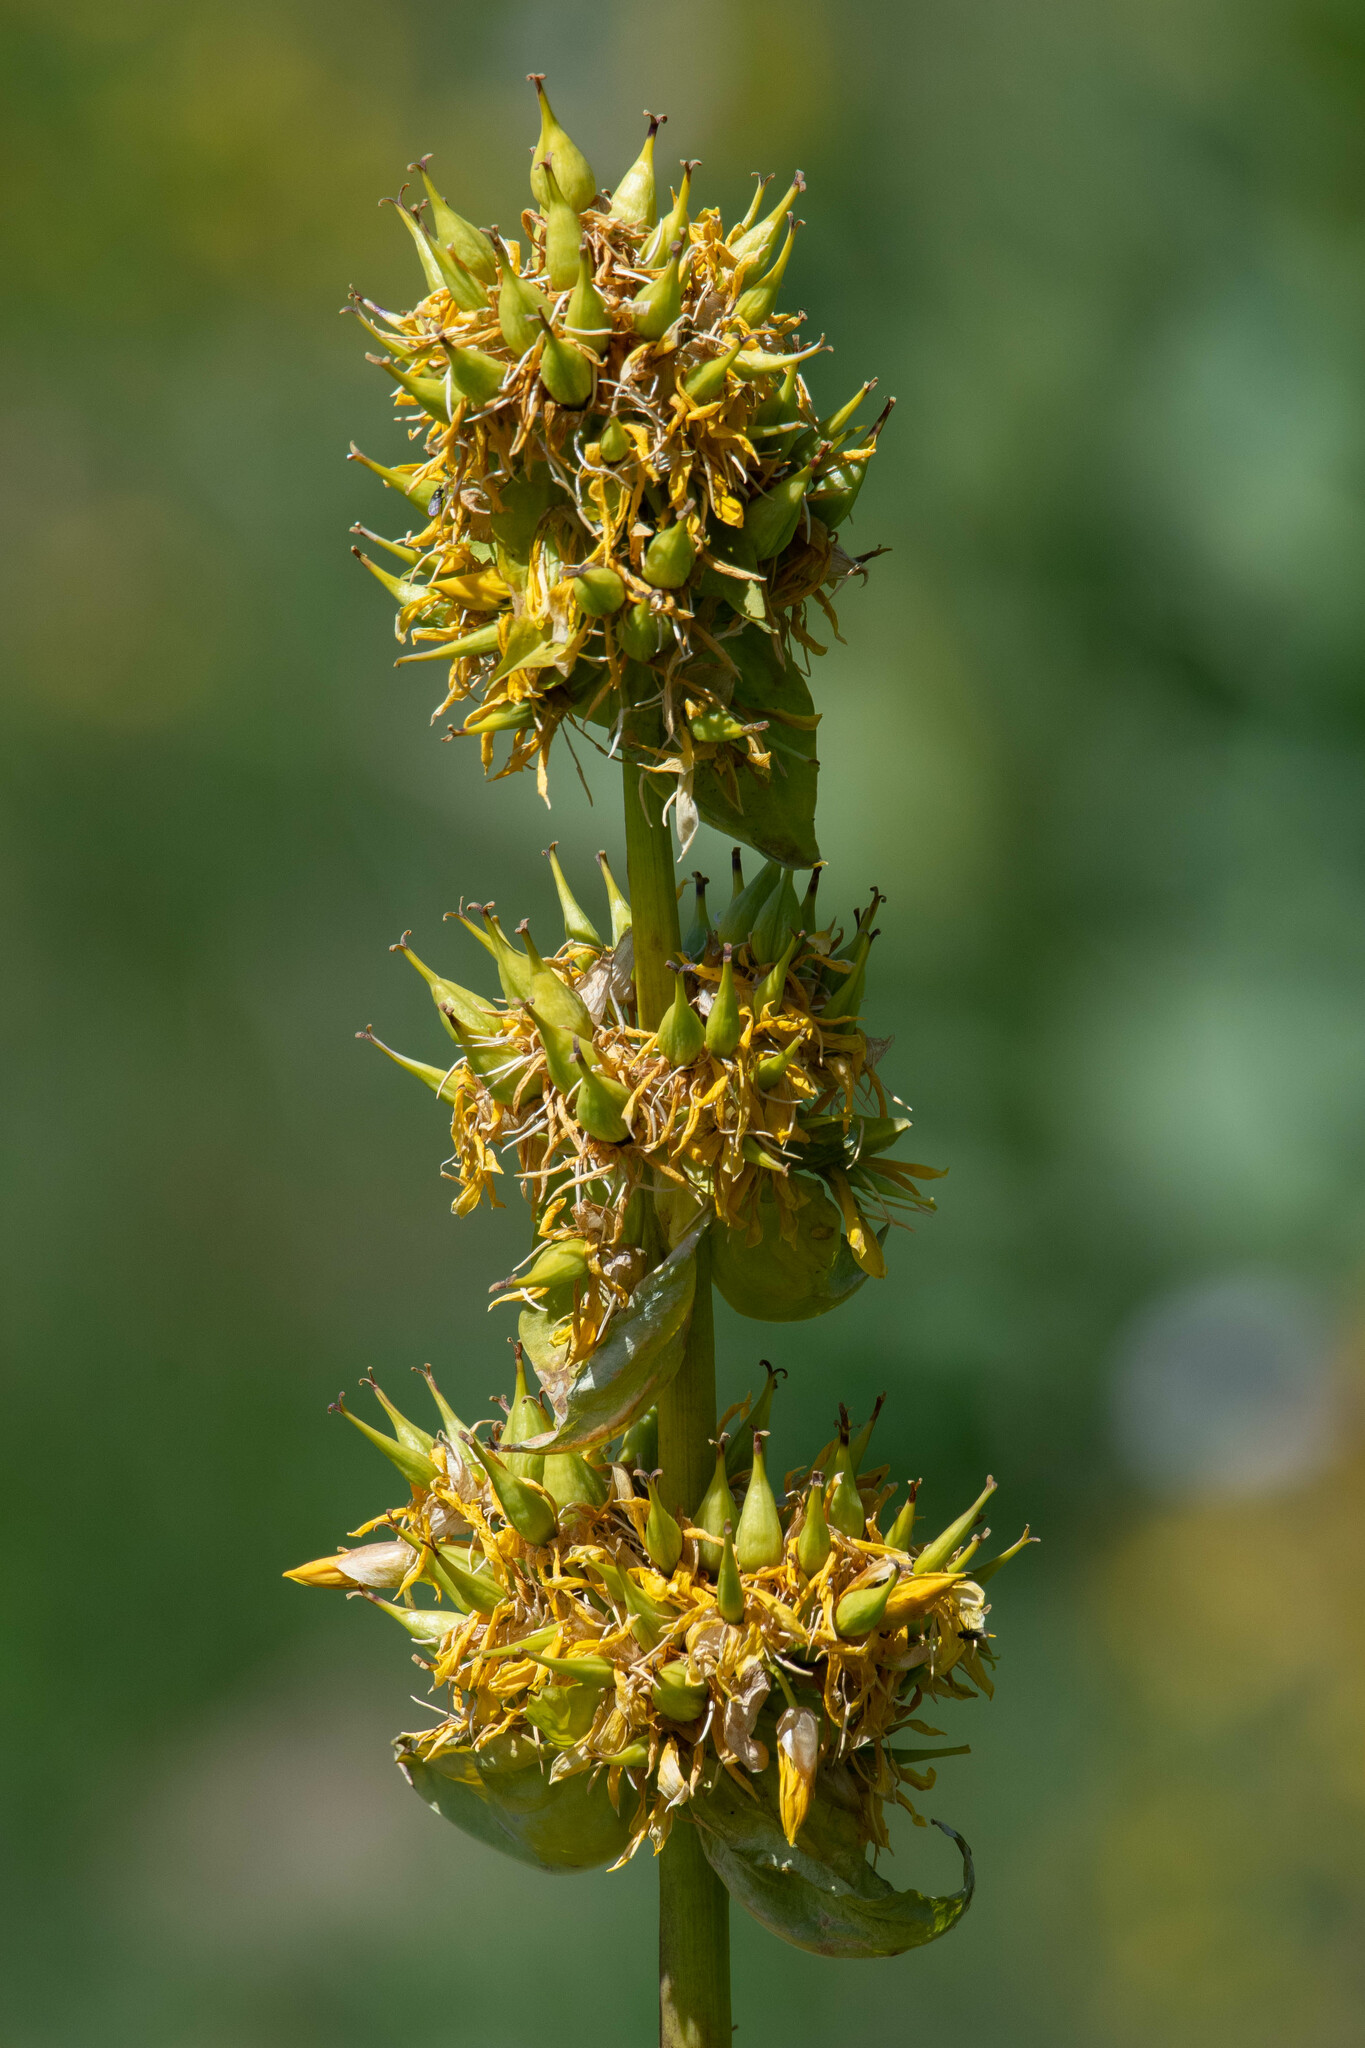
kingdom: Plantae
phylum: Tracheophyta
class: Magnoliopsida
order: Gentianales
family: Gentianaceae
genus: Gentiana
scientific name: Gentiana lutea
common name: Great yellow gentian
